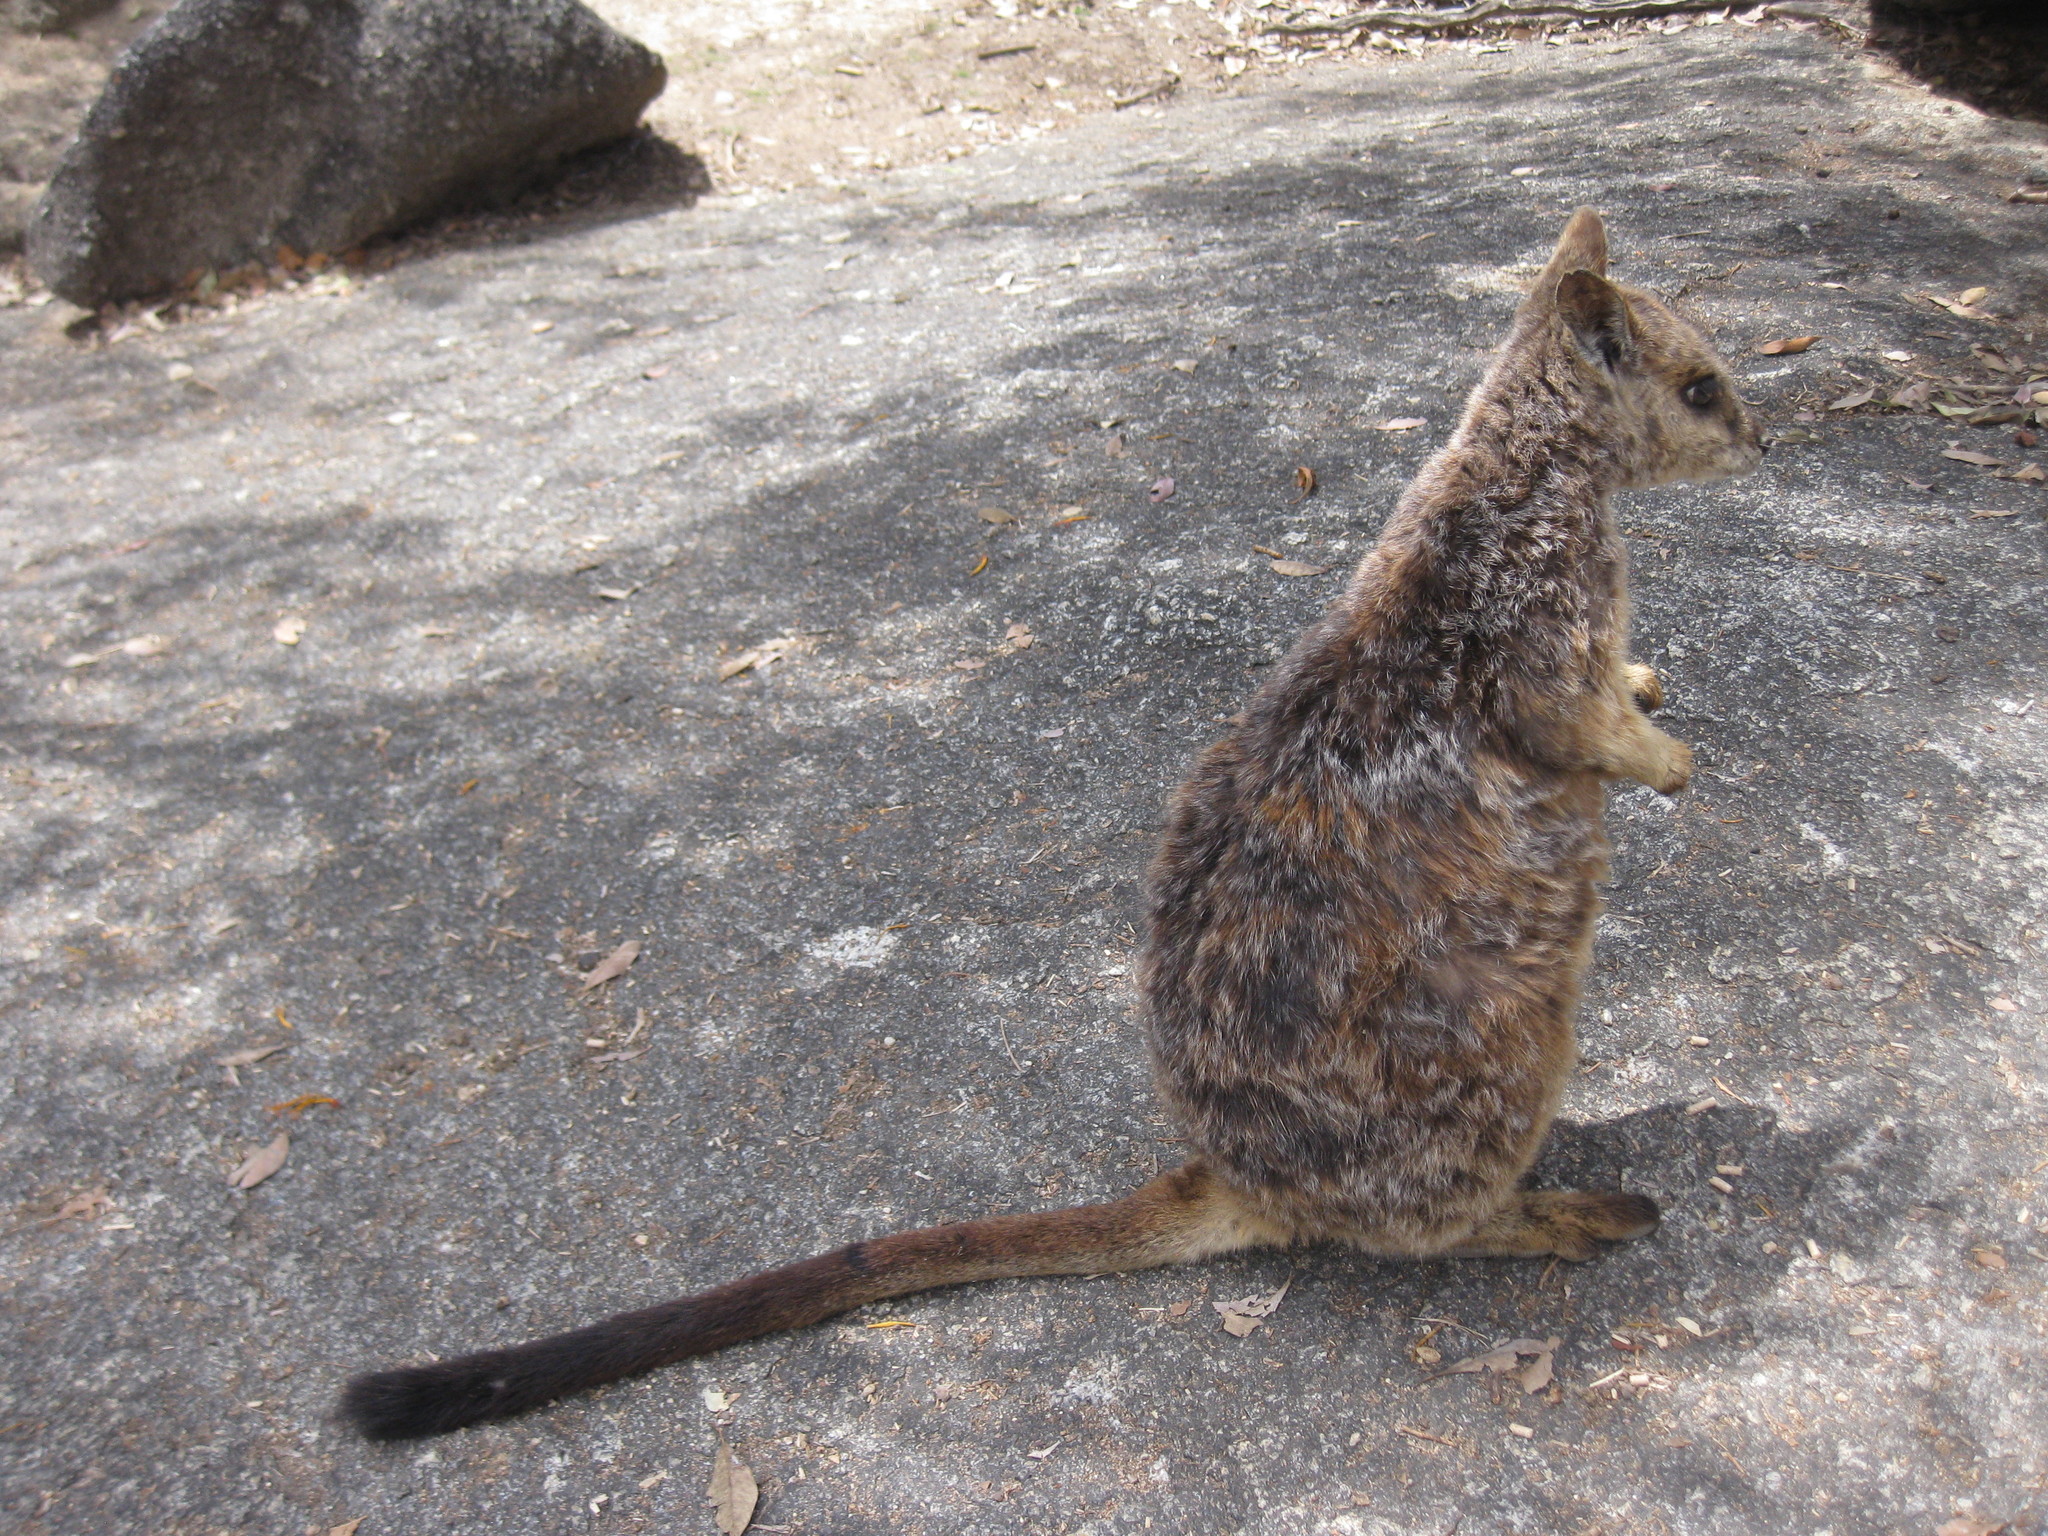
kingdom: Animalia
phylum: Chordata
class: Mammalia
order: Diprotodontia
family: Macropodidae
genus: Petrogale
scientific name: Petrogale mareeba
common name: Mareeba rock-wallaby
